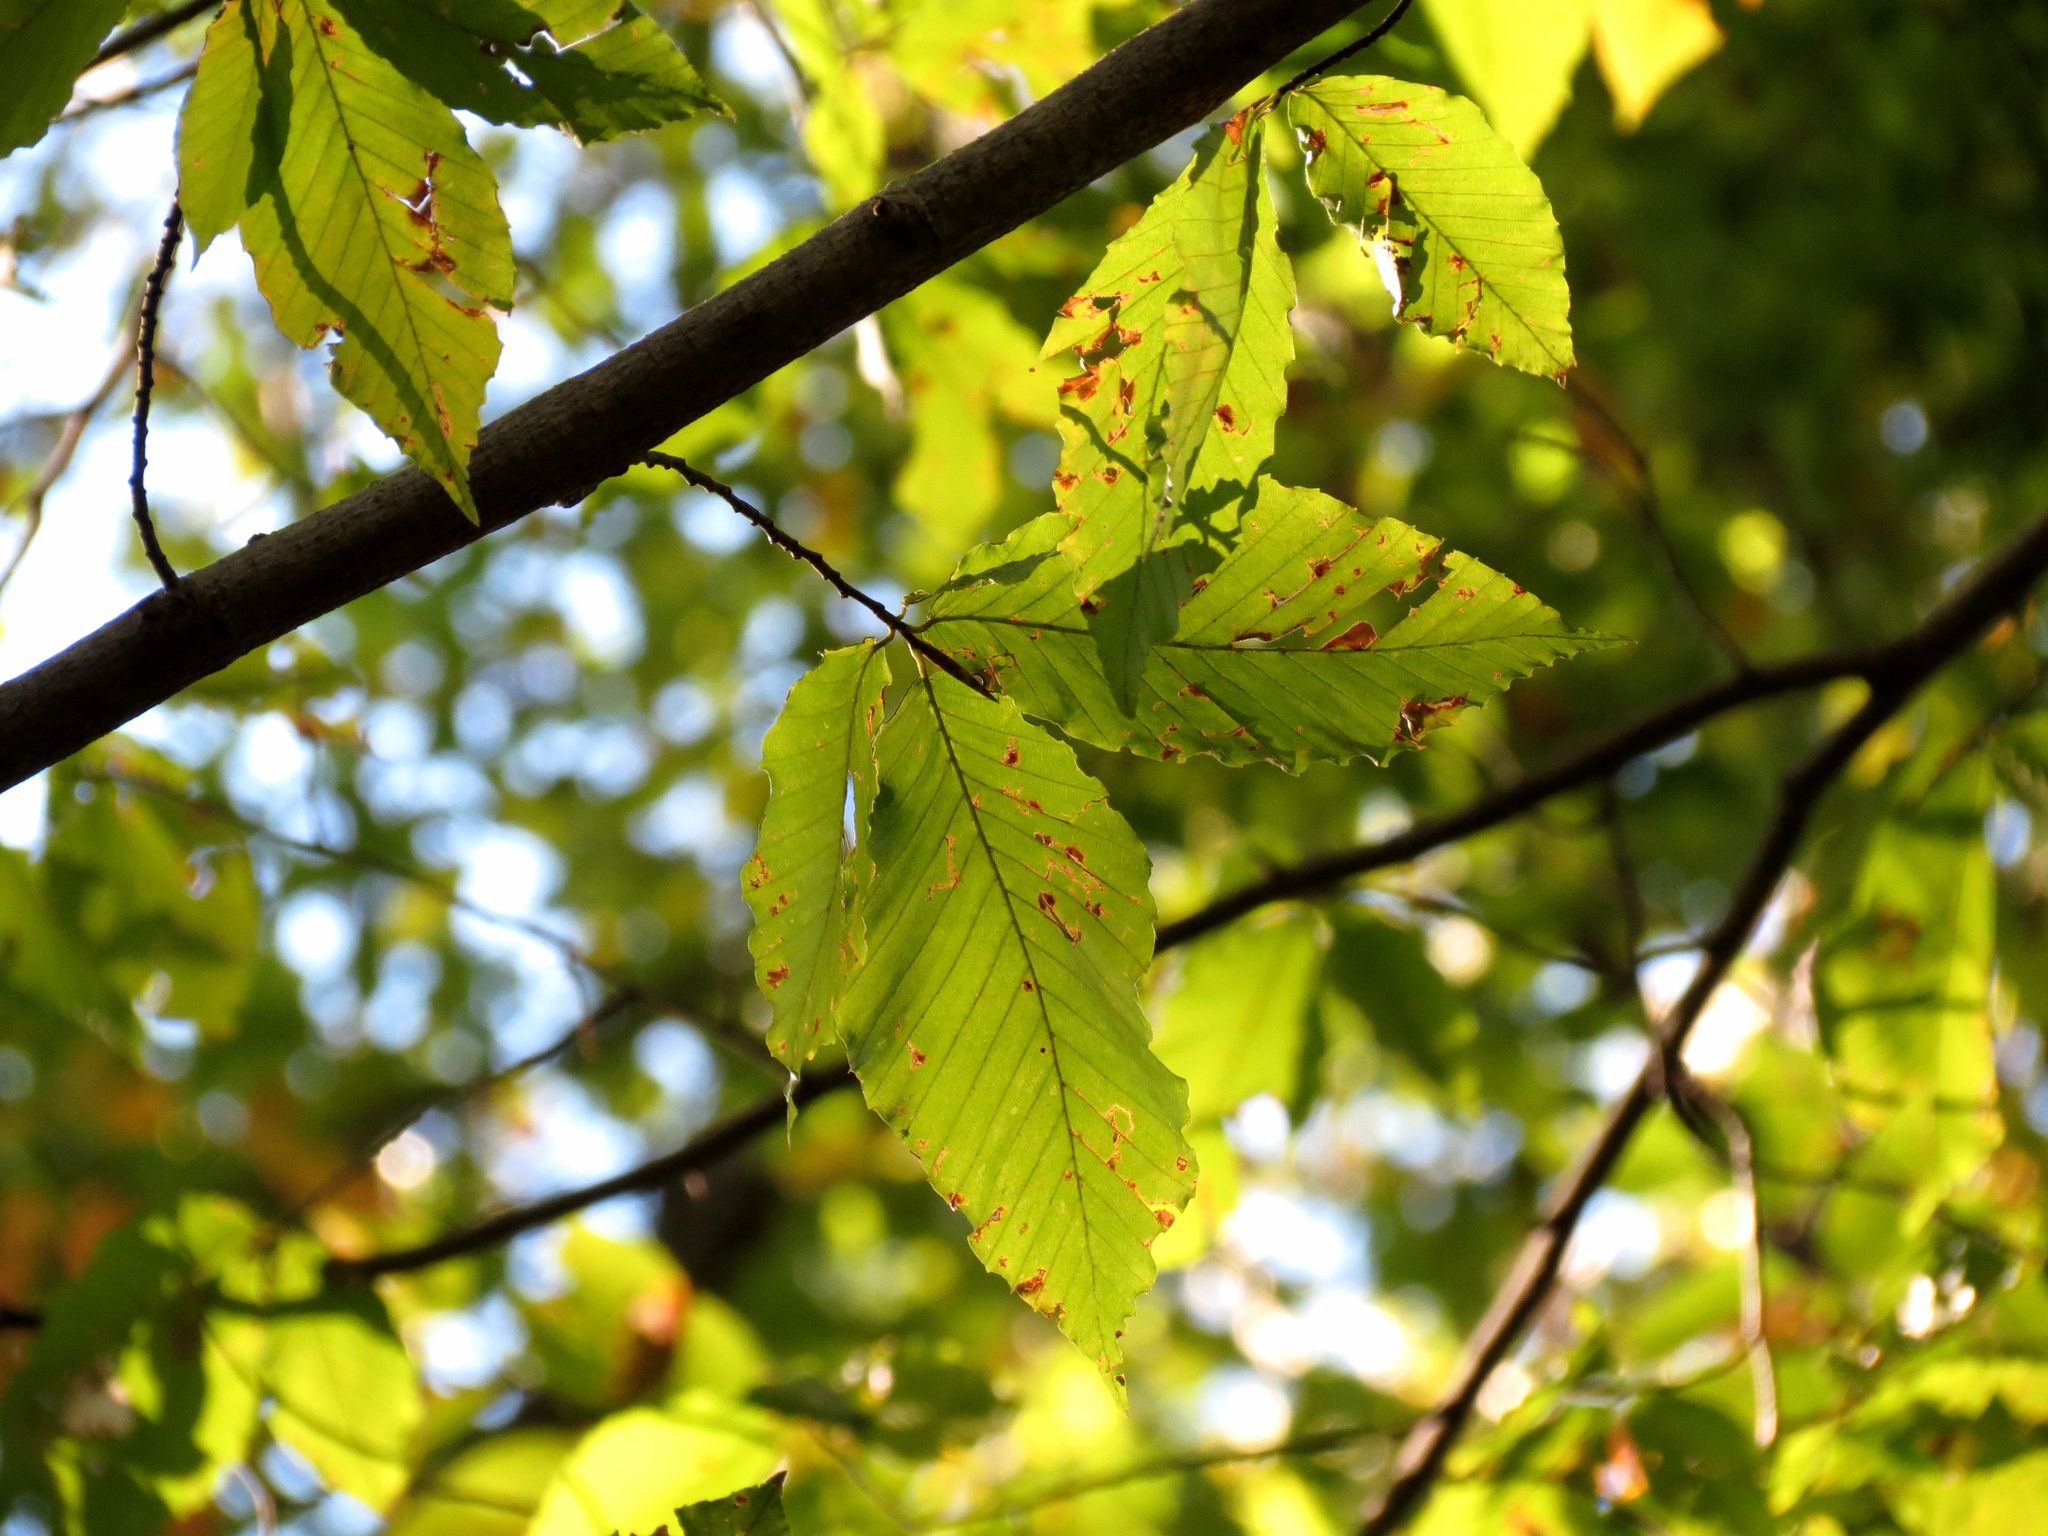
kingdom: Plantae
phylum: Tracheophyta
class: Magnoliopsida
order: Fagales
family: Fagaceae
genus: Fagus
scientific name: Fagus grandifolia
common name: American beech
